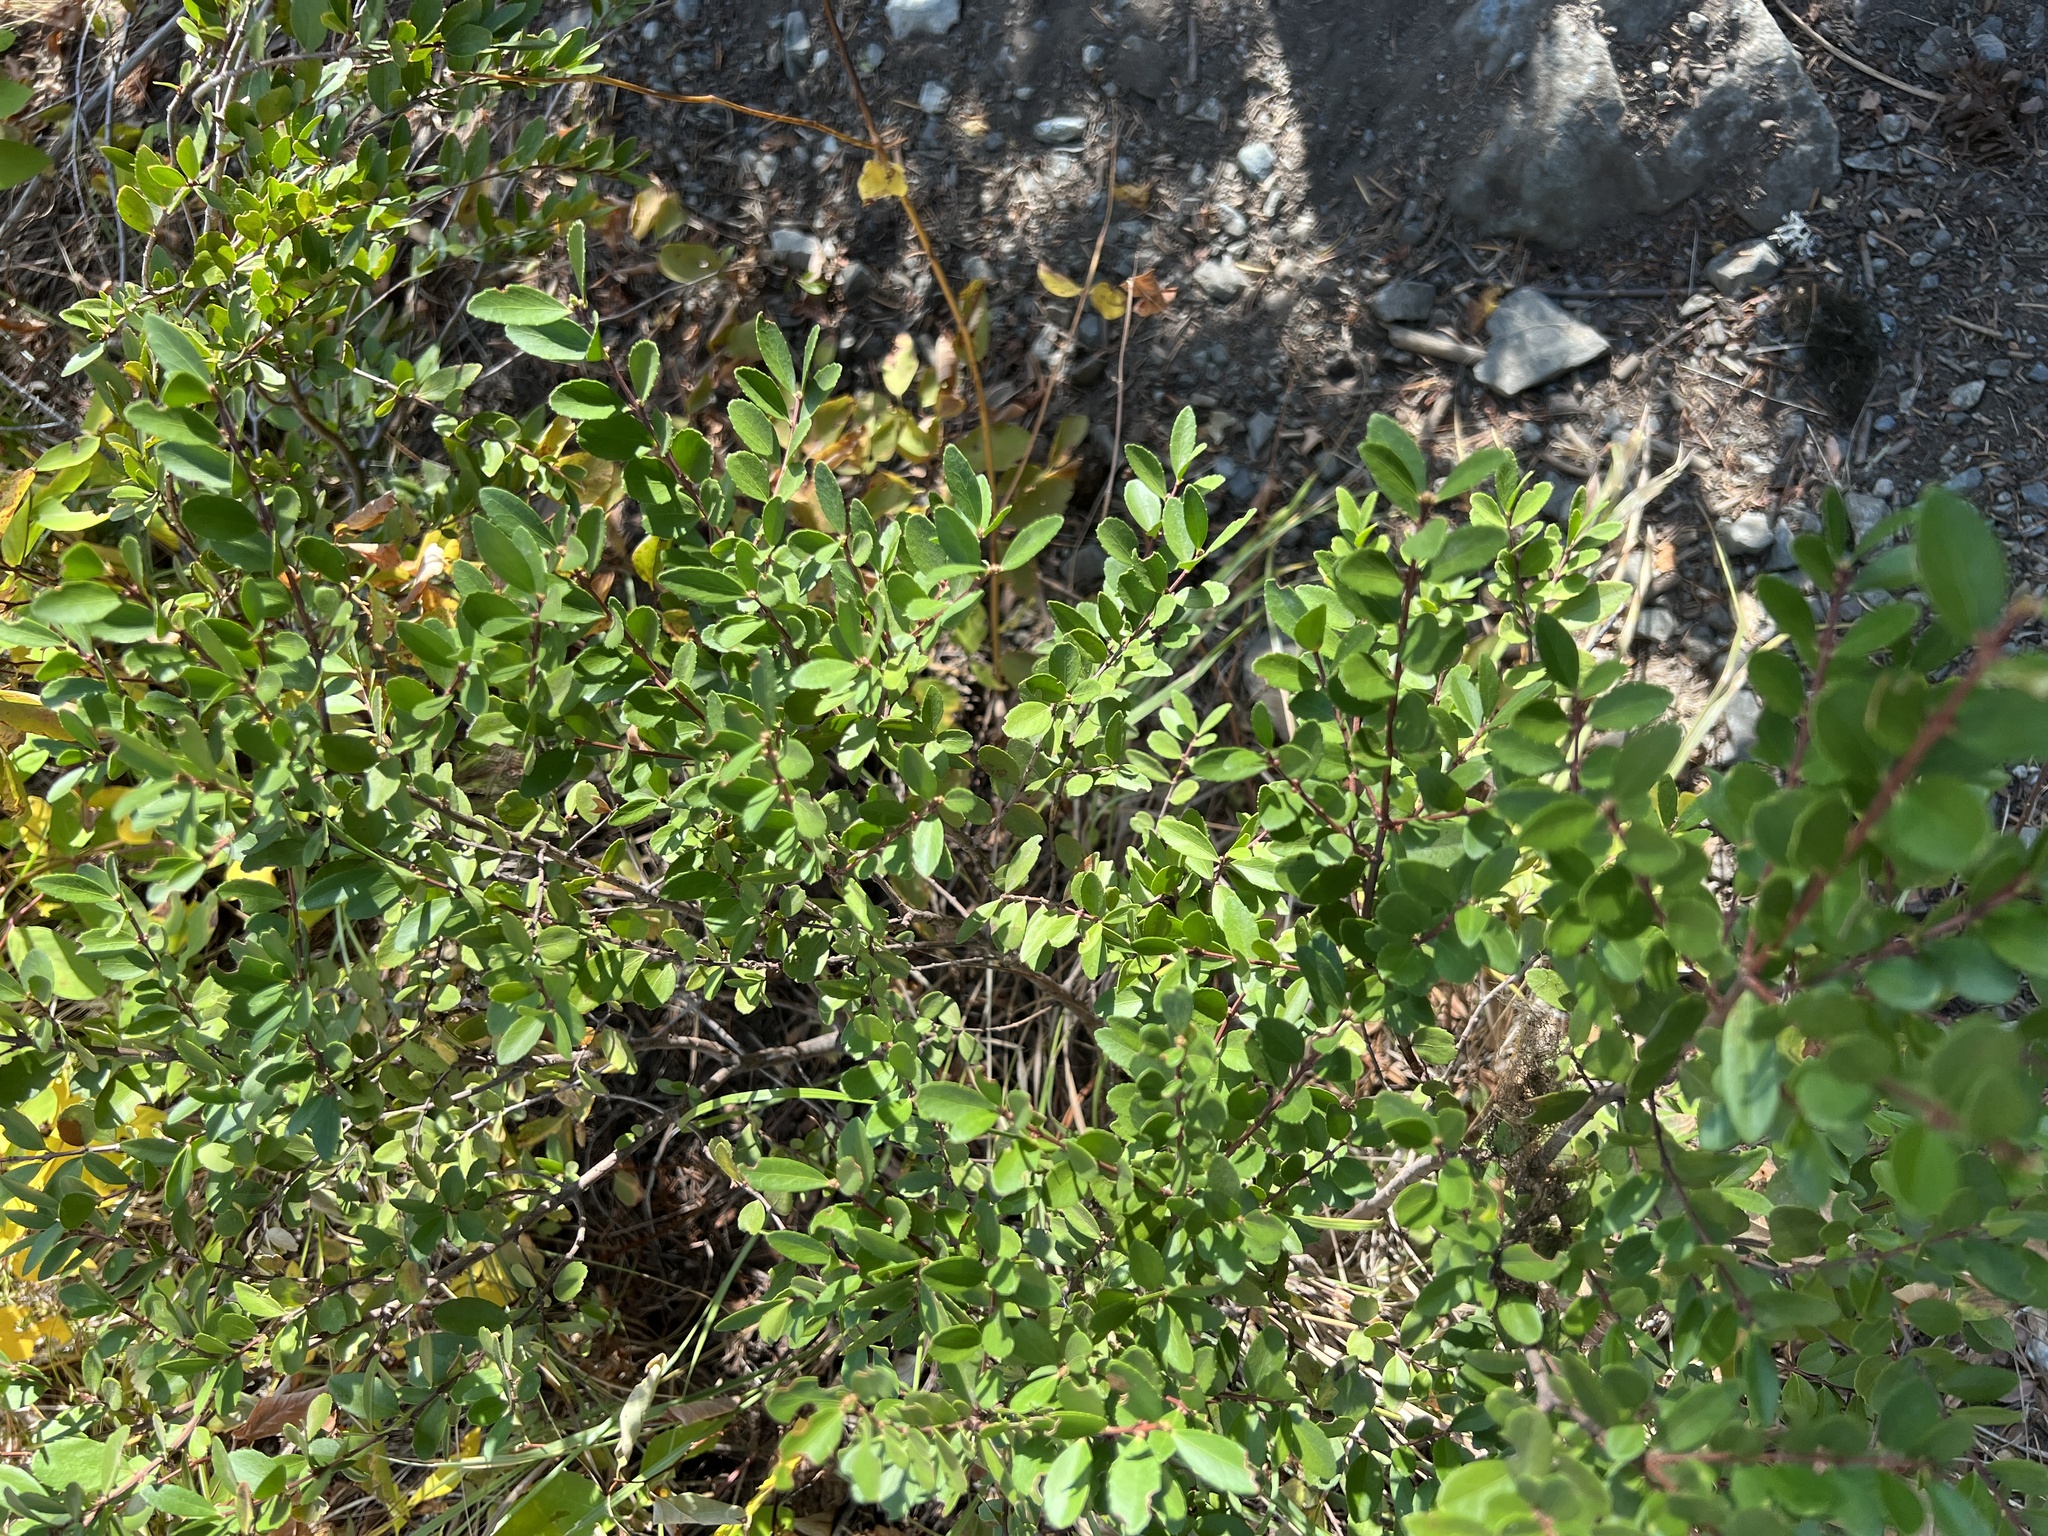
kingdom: Plantae
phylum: Tracheophyta
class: Magnoliopsida
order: Celastrales
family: Celastraceae
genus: Paxistima
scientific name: Paxistima myrsinites
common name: Mountain-lover
